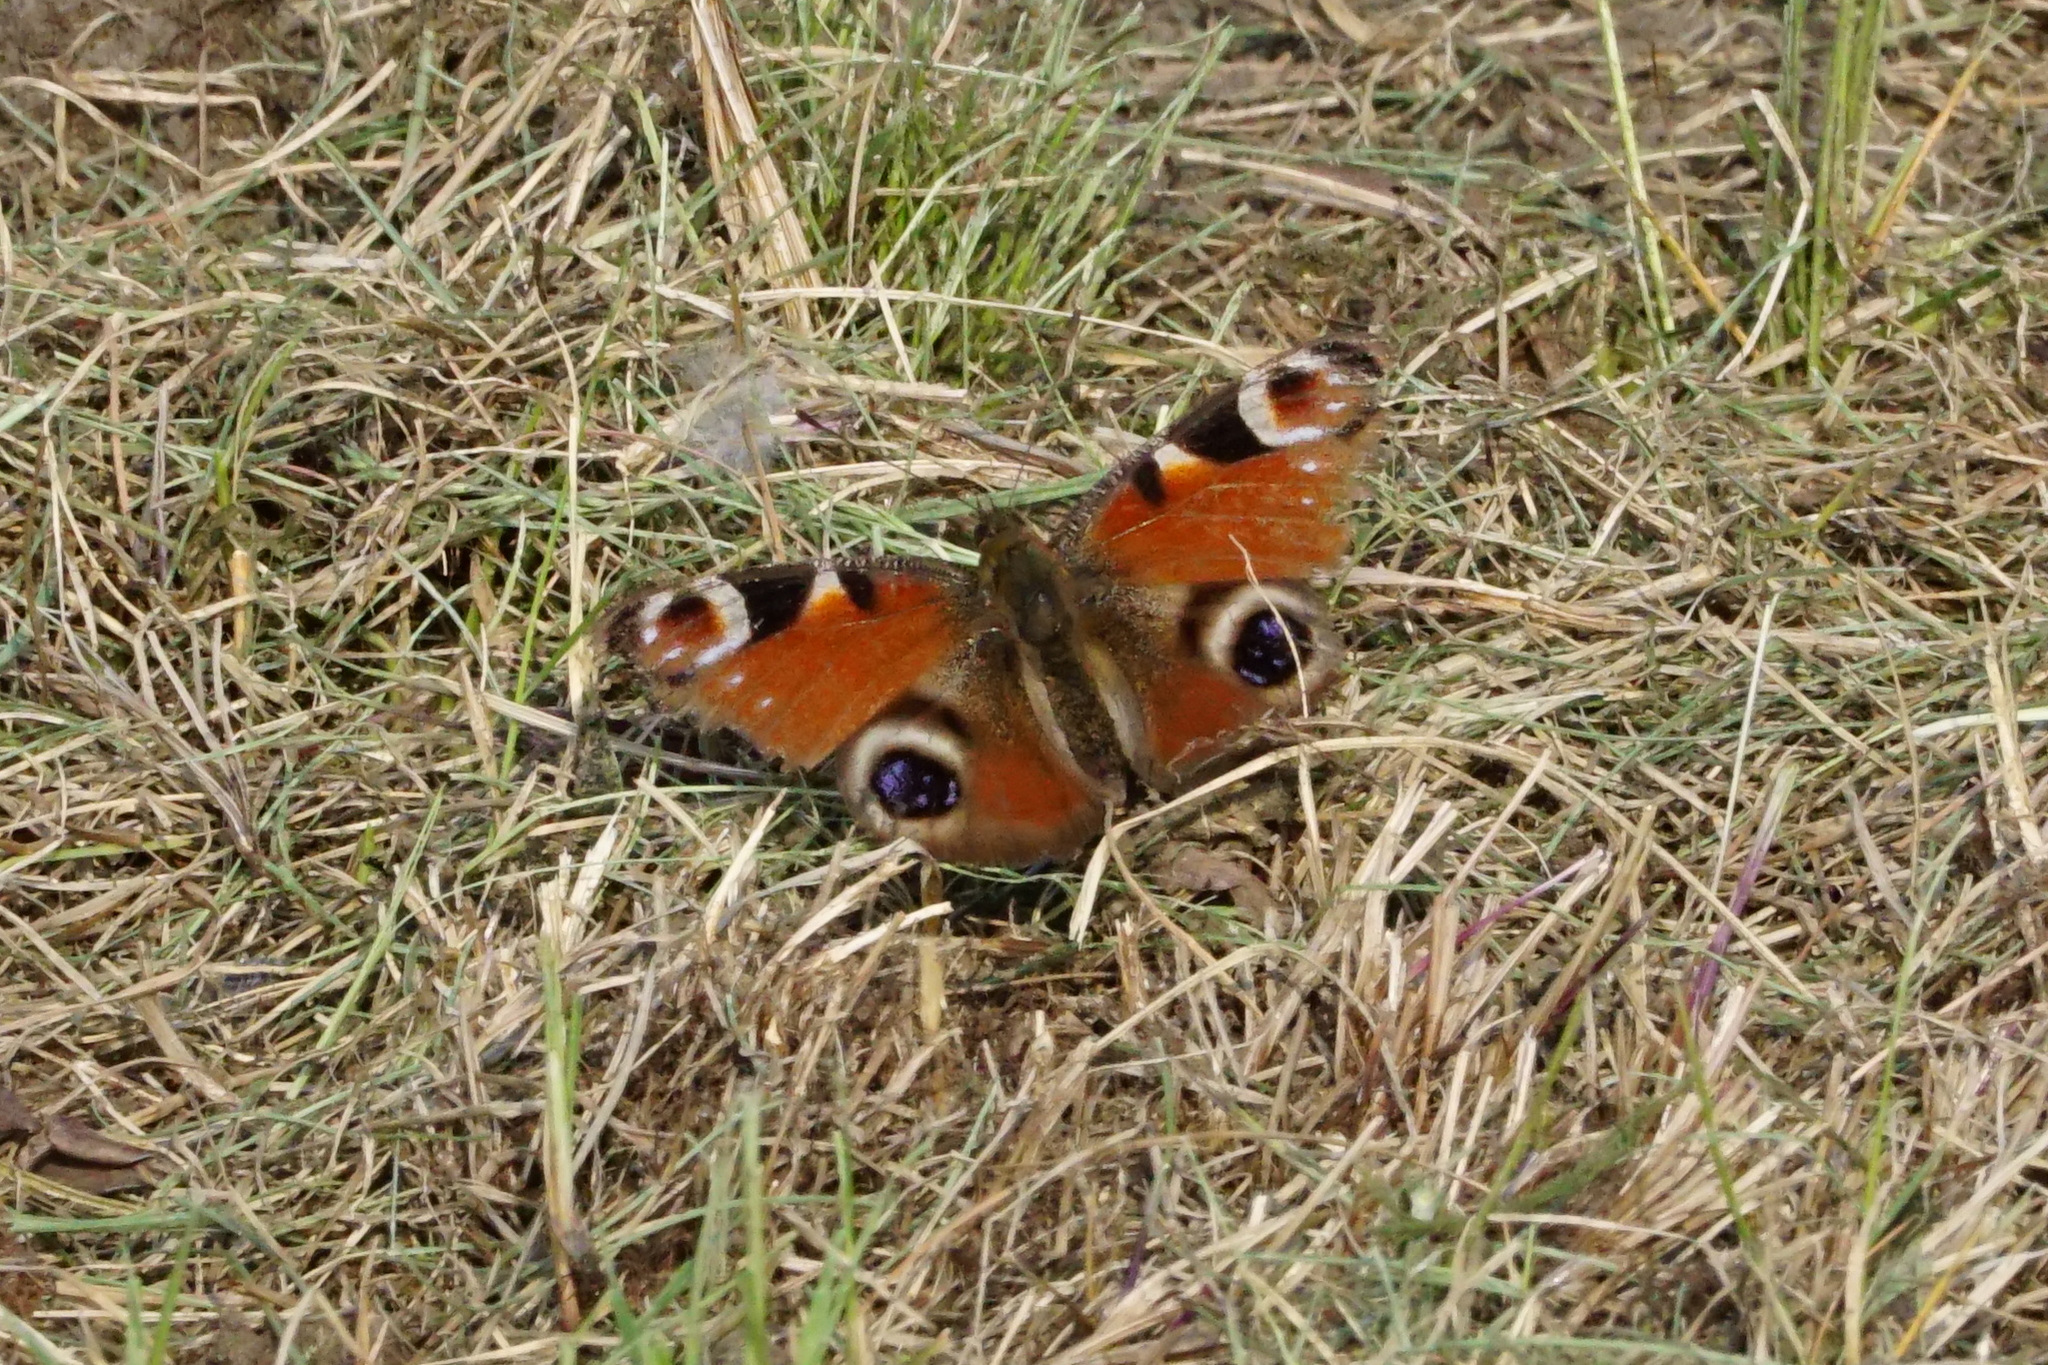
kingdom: Animalia
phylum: Arthropoda
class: Insecta
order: Lepidoptera
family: Nymphalidae
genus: Aglais
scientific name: Aglais io
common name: Peacock
